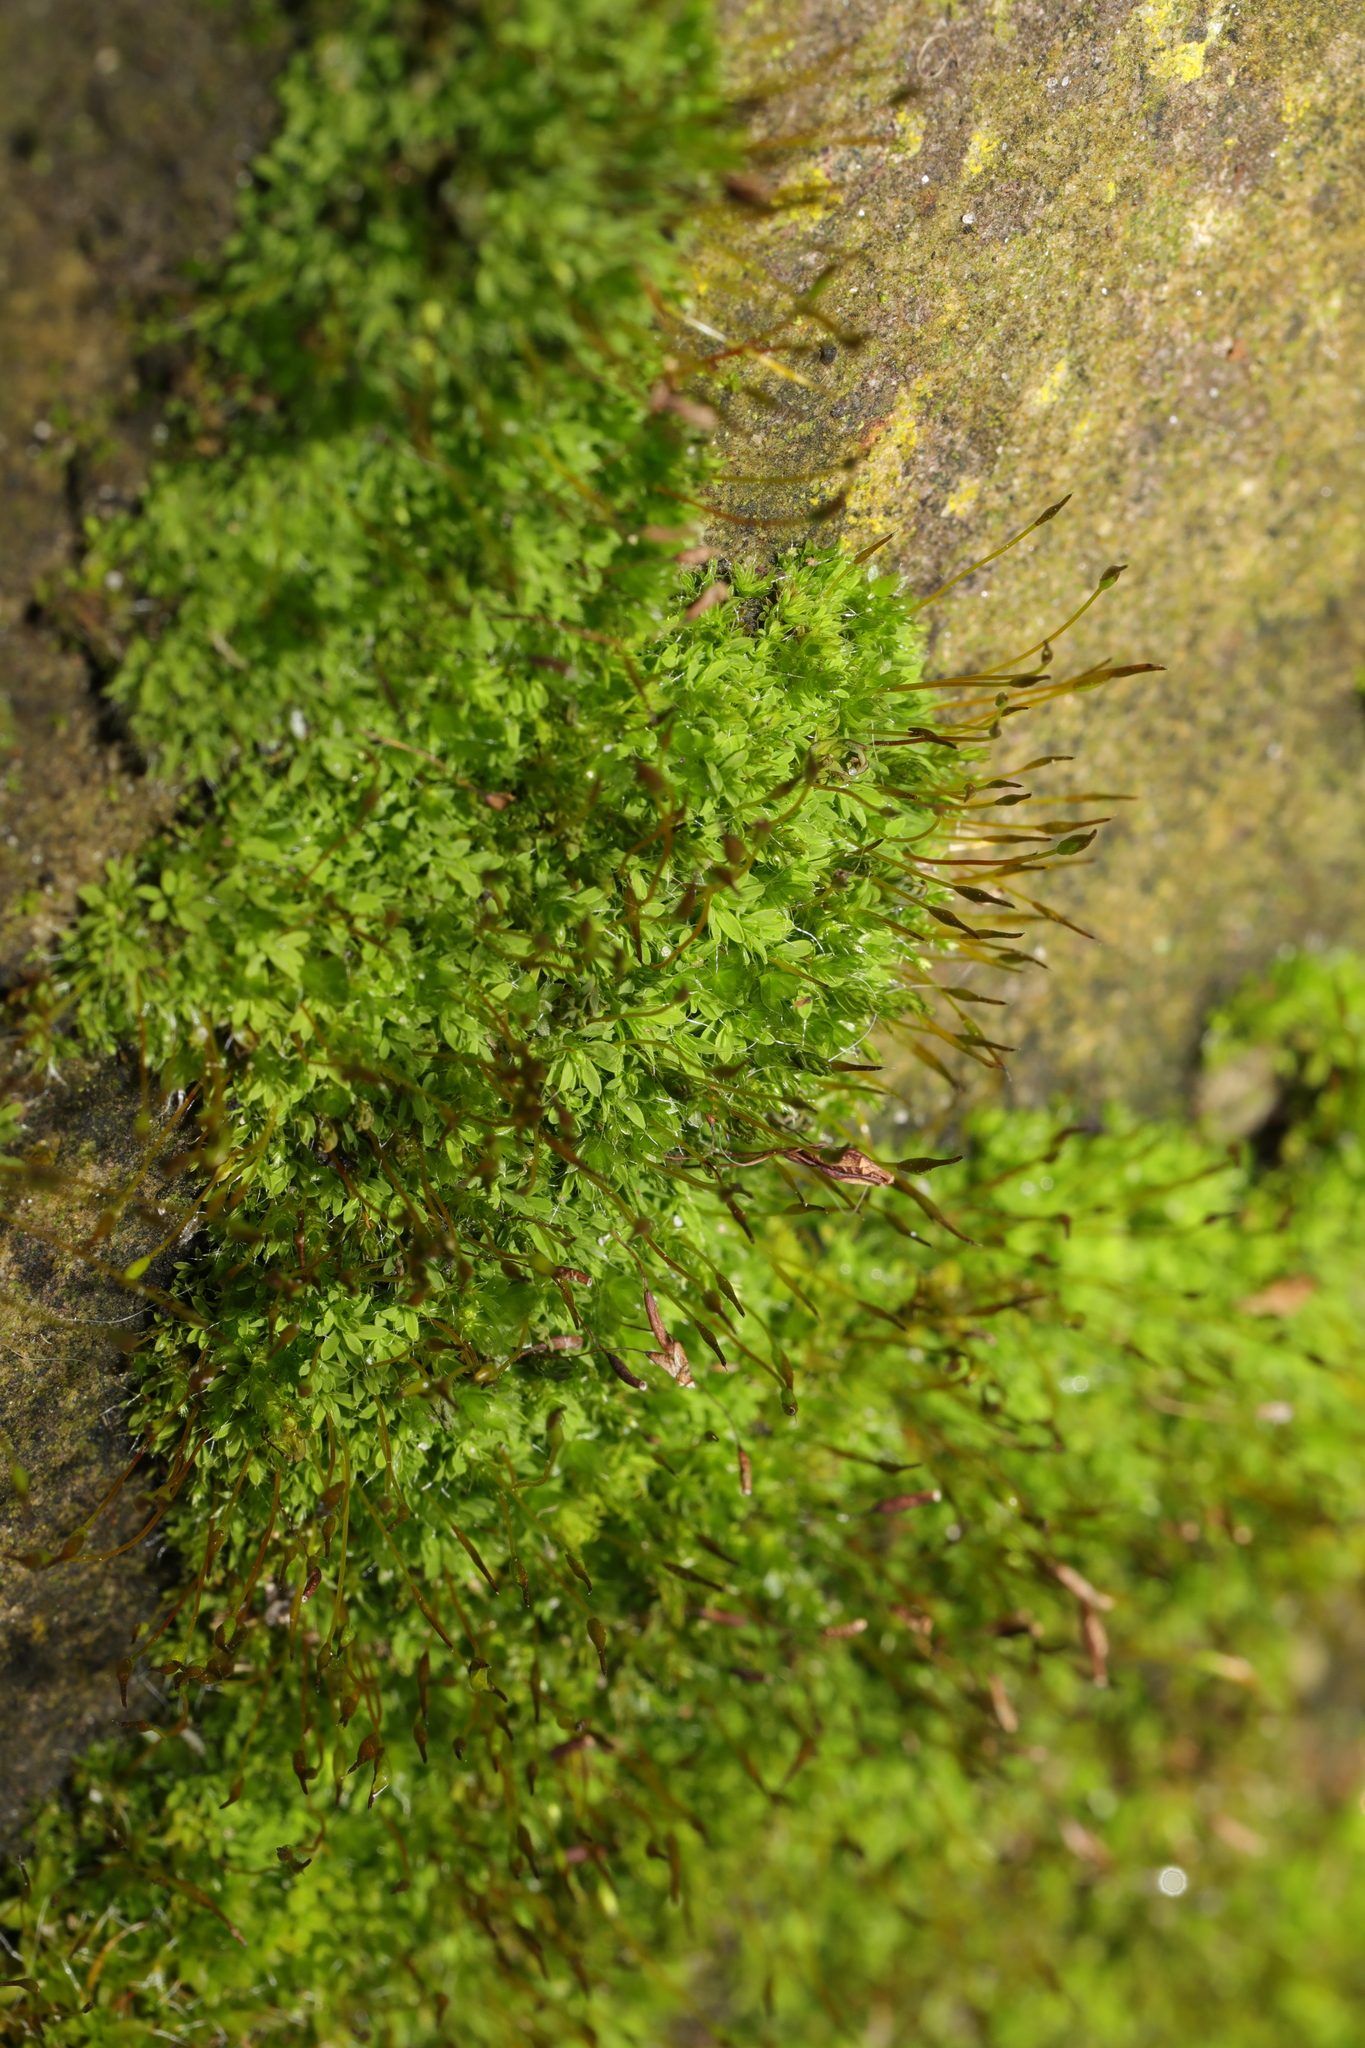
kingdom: Plantae
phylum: Bryophyta
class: Bryopsida
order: Pottiales
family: Pottiaceae
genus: Tortula
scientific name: Tortula muralis
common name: Wall screw-moss
